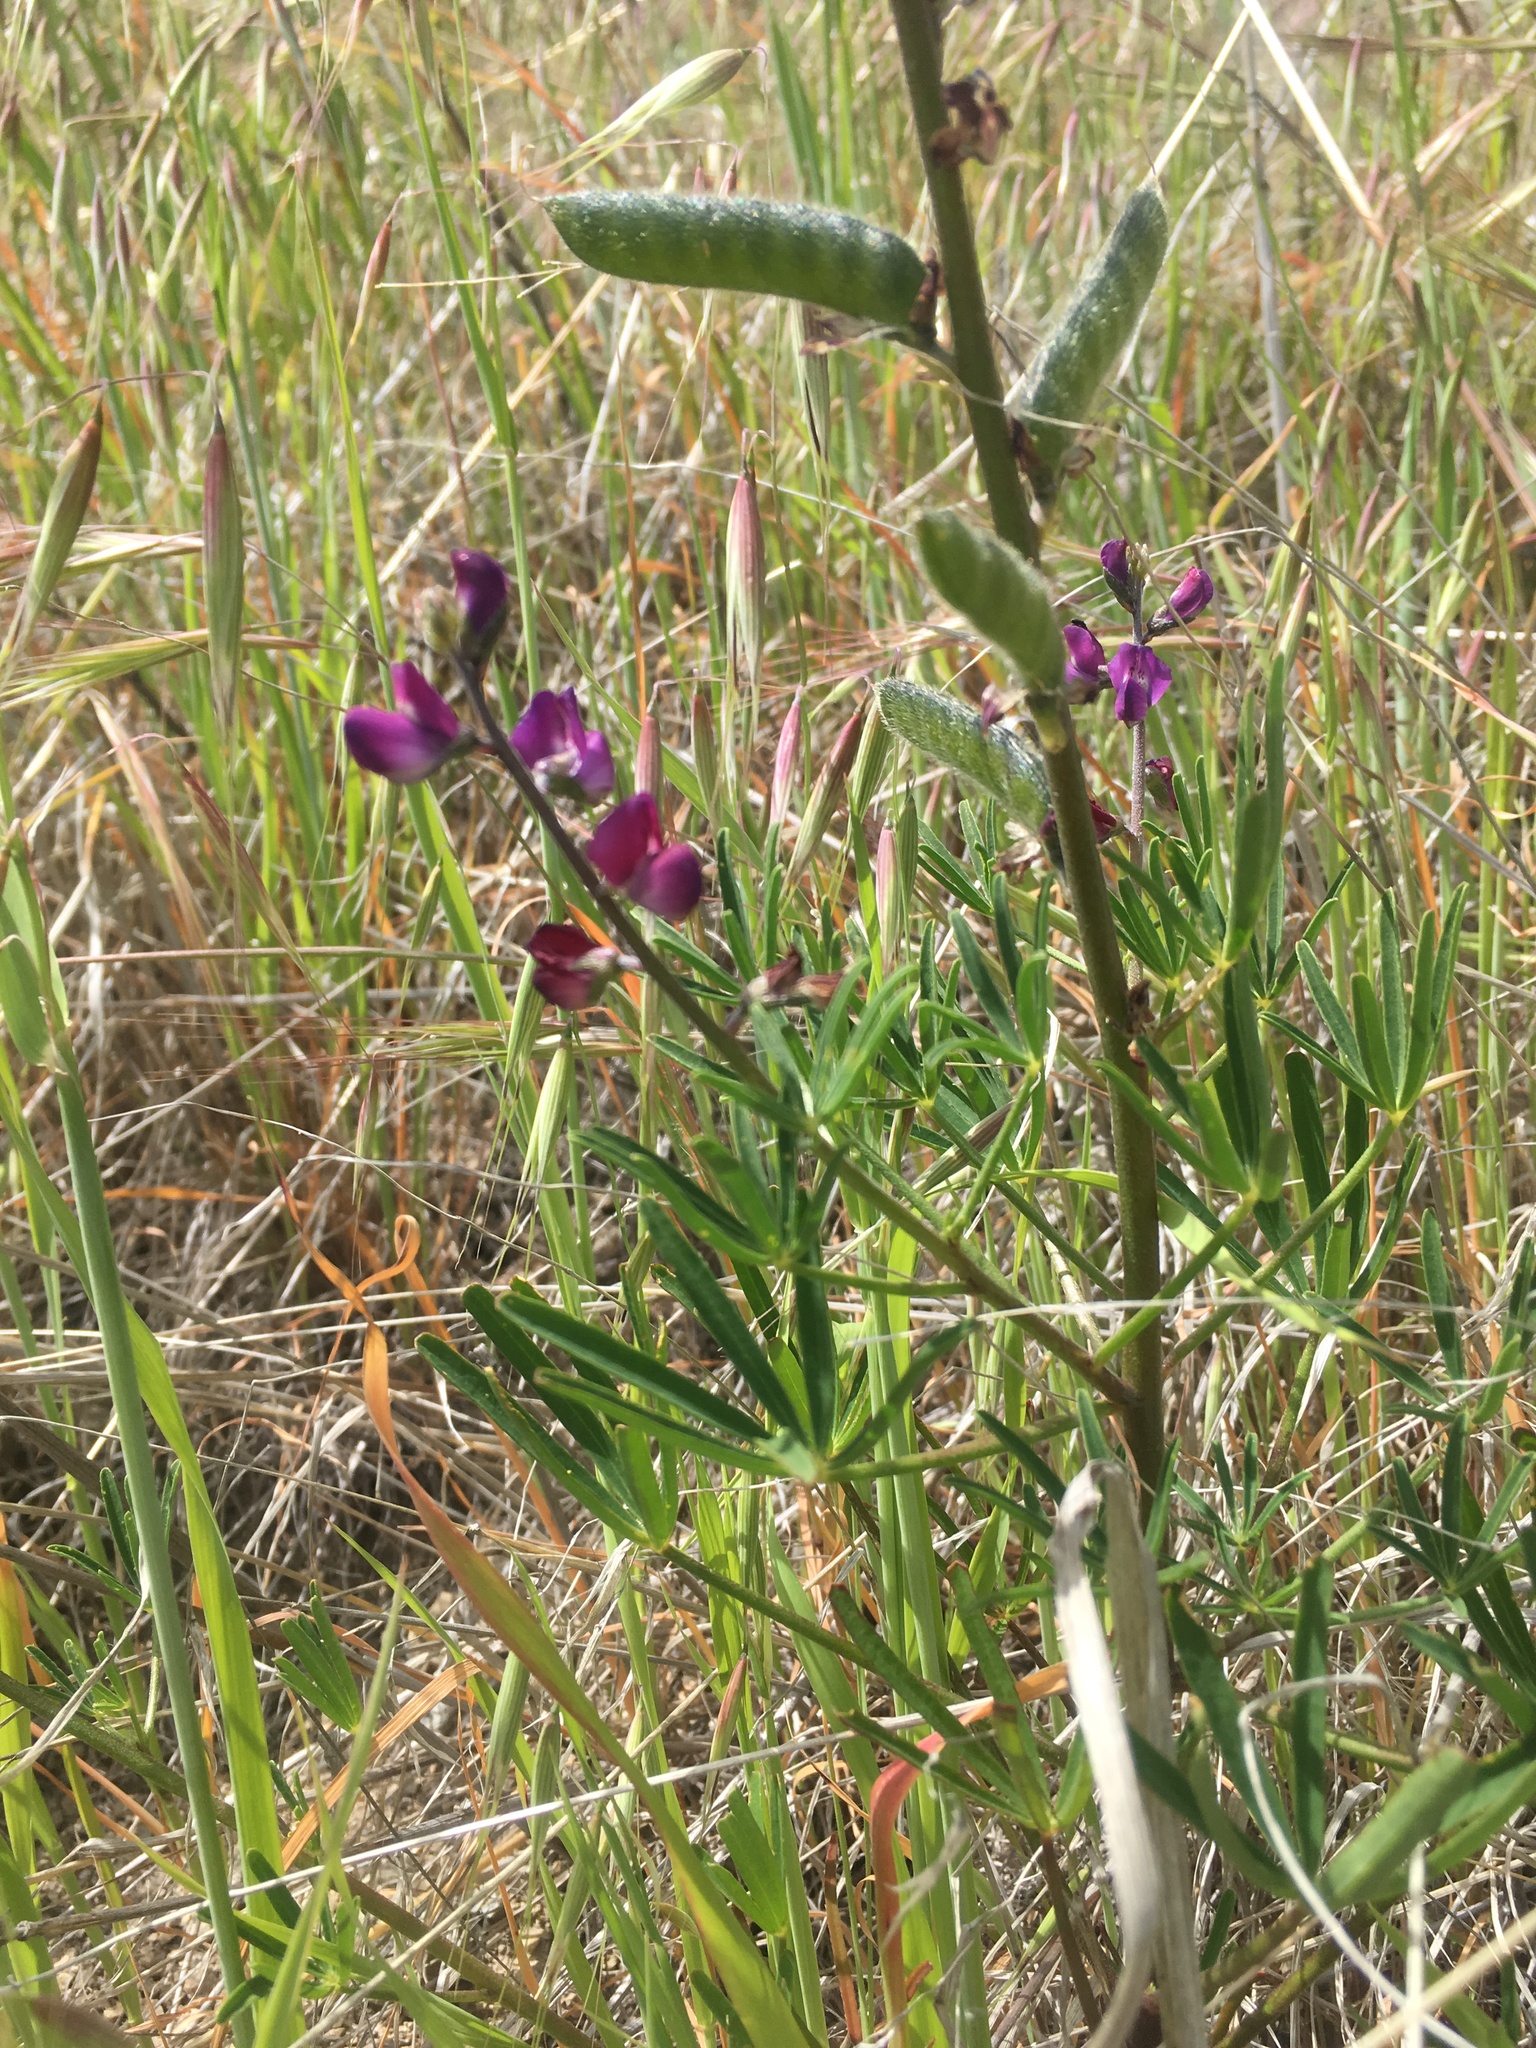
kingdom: Plantae
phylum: Tracheophyta
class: Magnoliopsida
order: Fabales
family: Fabaceae
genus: Lupinus
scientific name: Lupinus truncatus
